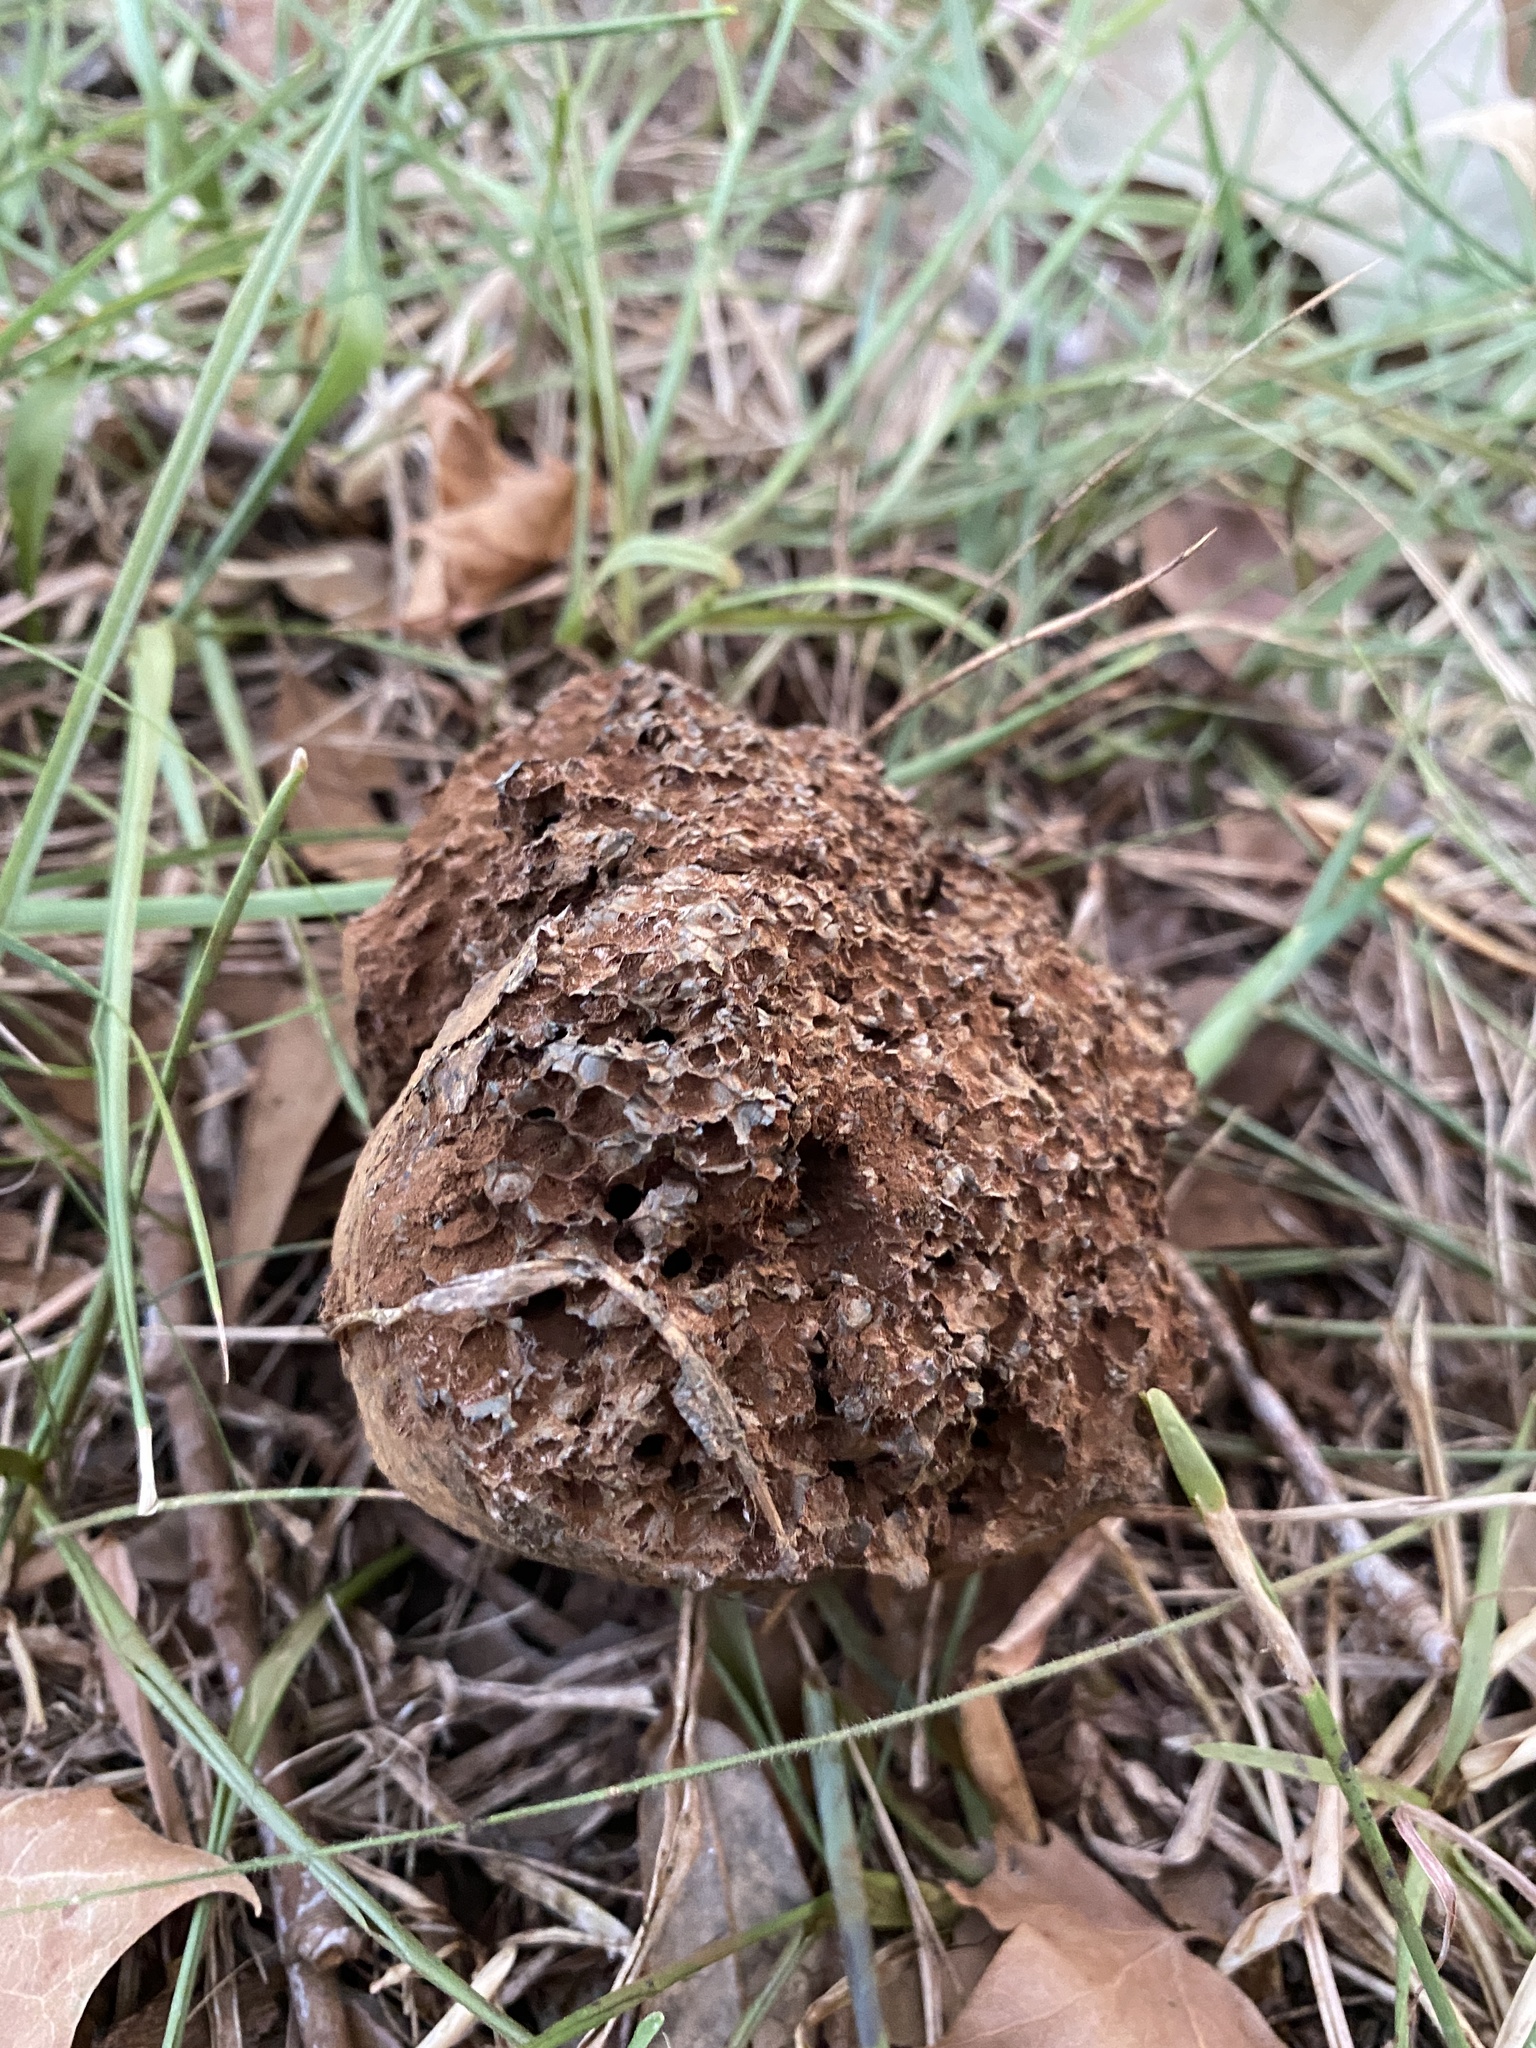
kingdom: Fungi
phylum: Basidiomycota
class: Agaricomycetes
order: Boletales
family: Sclerodermataceae
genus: Pisolithus
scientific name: Pisolithus arenarius
